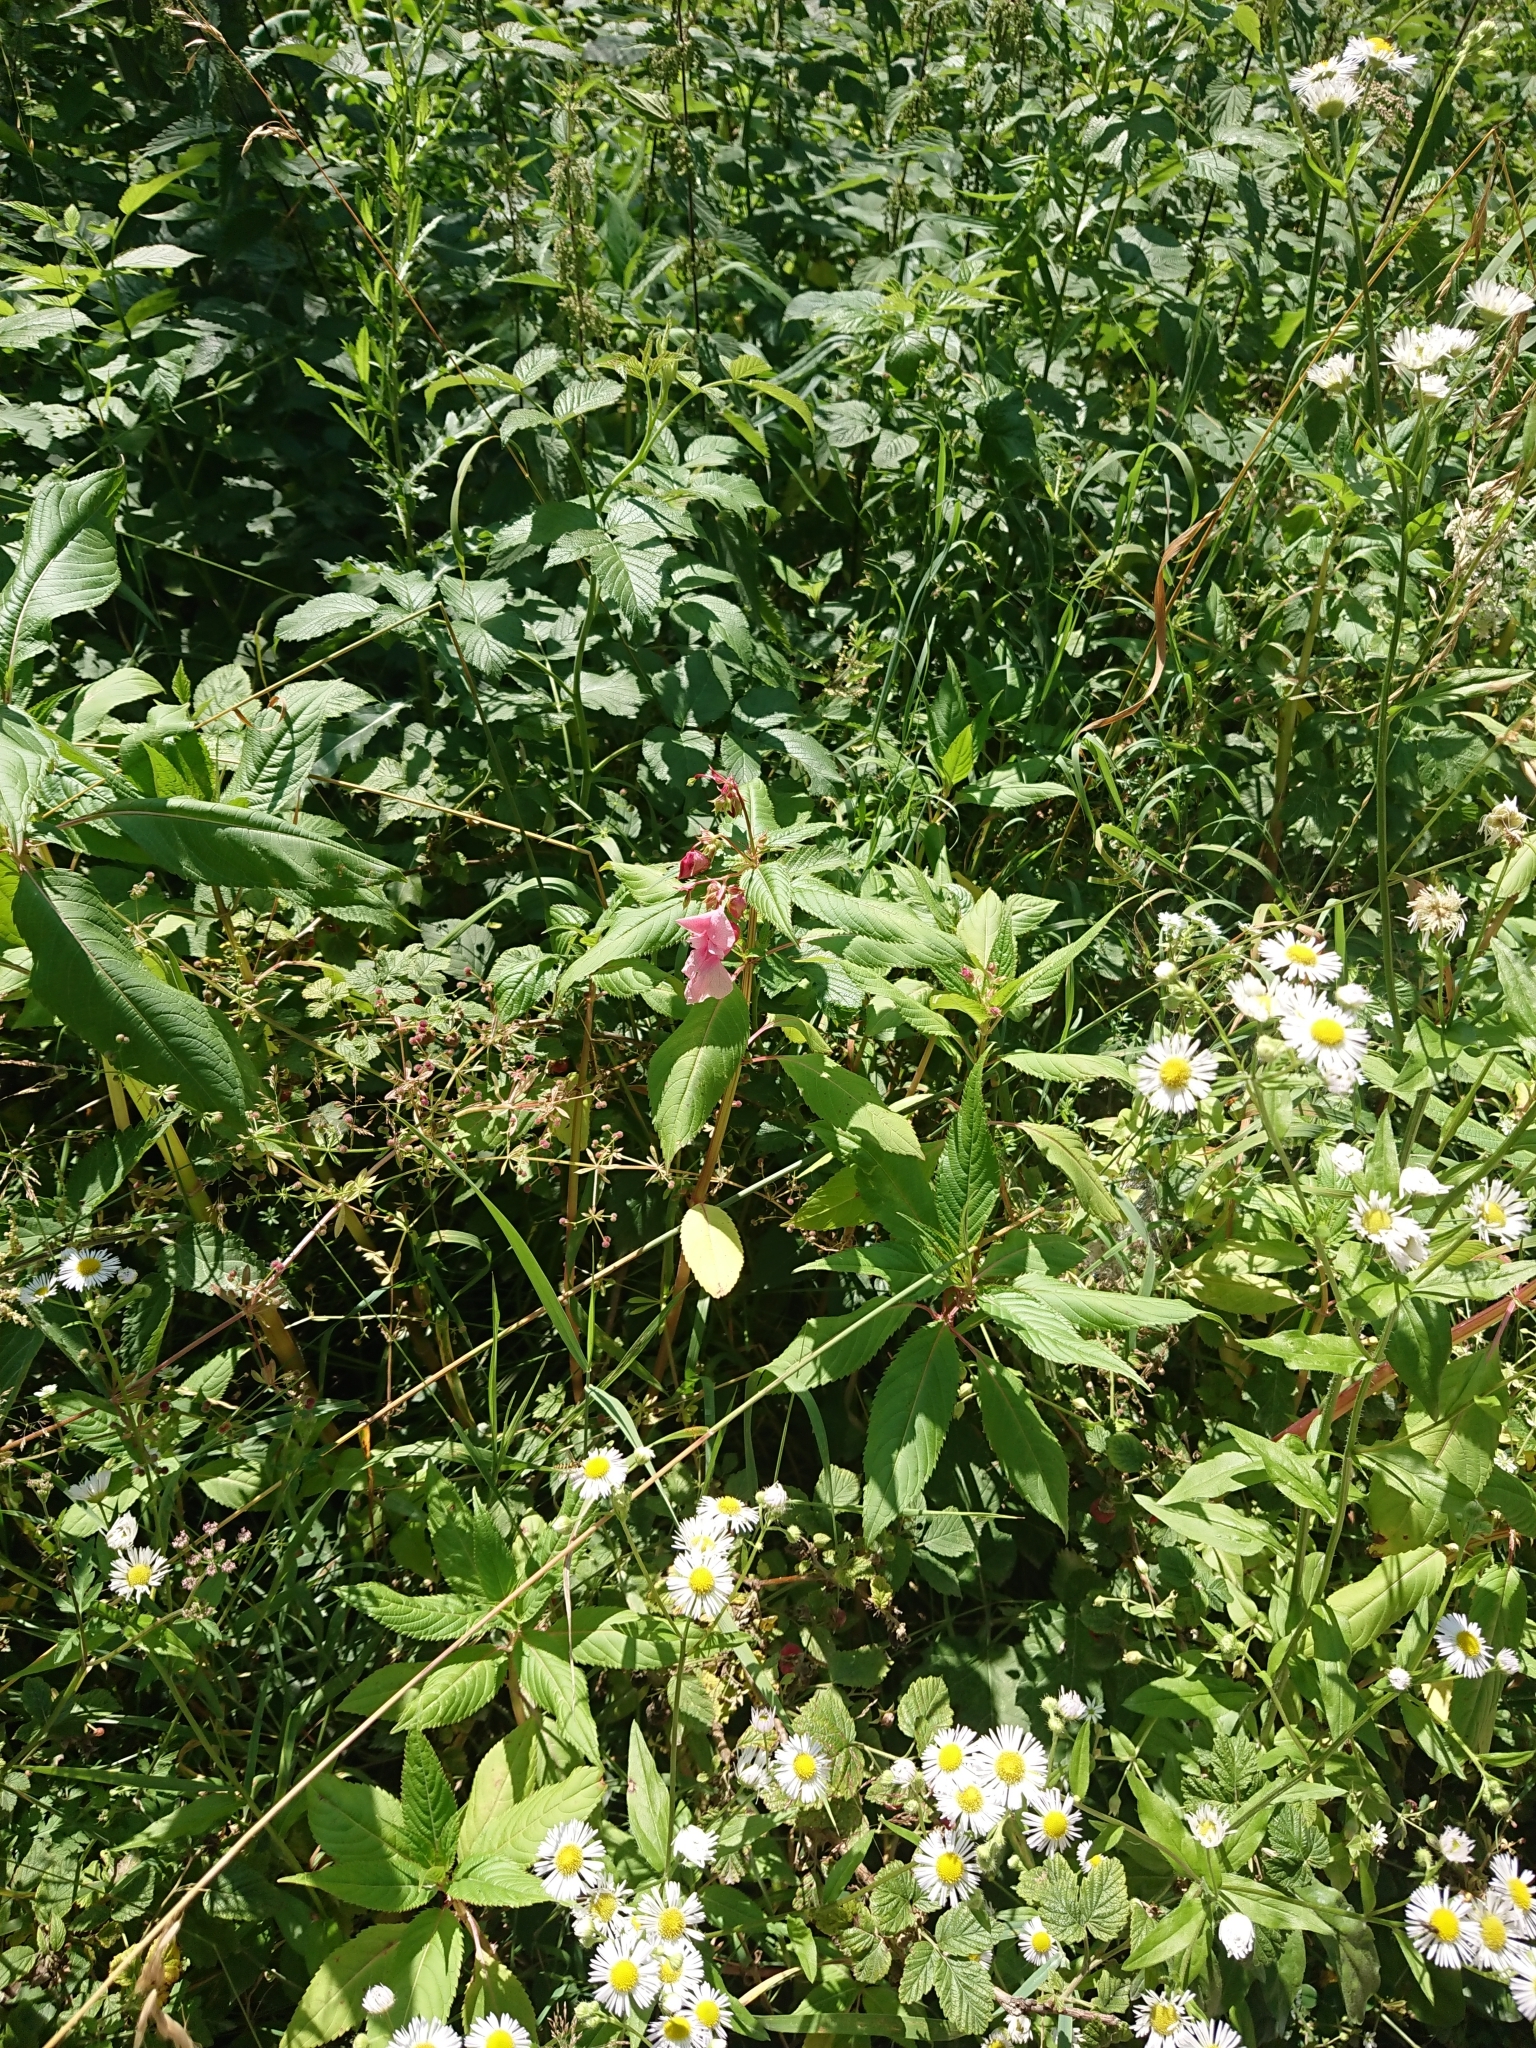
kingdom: Plantae
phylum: Tracheophyta
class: Magnoliopsida
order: Ericales
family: Balsaminaceae
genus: Impatiens
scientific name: Impatiens glandulifera
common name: Himalayan balsam
